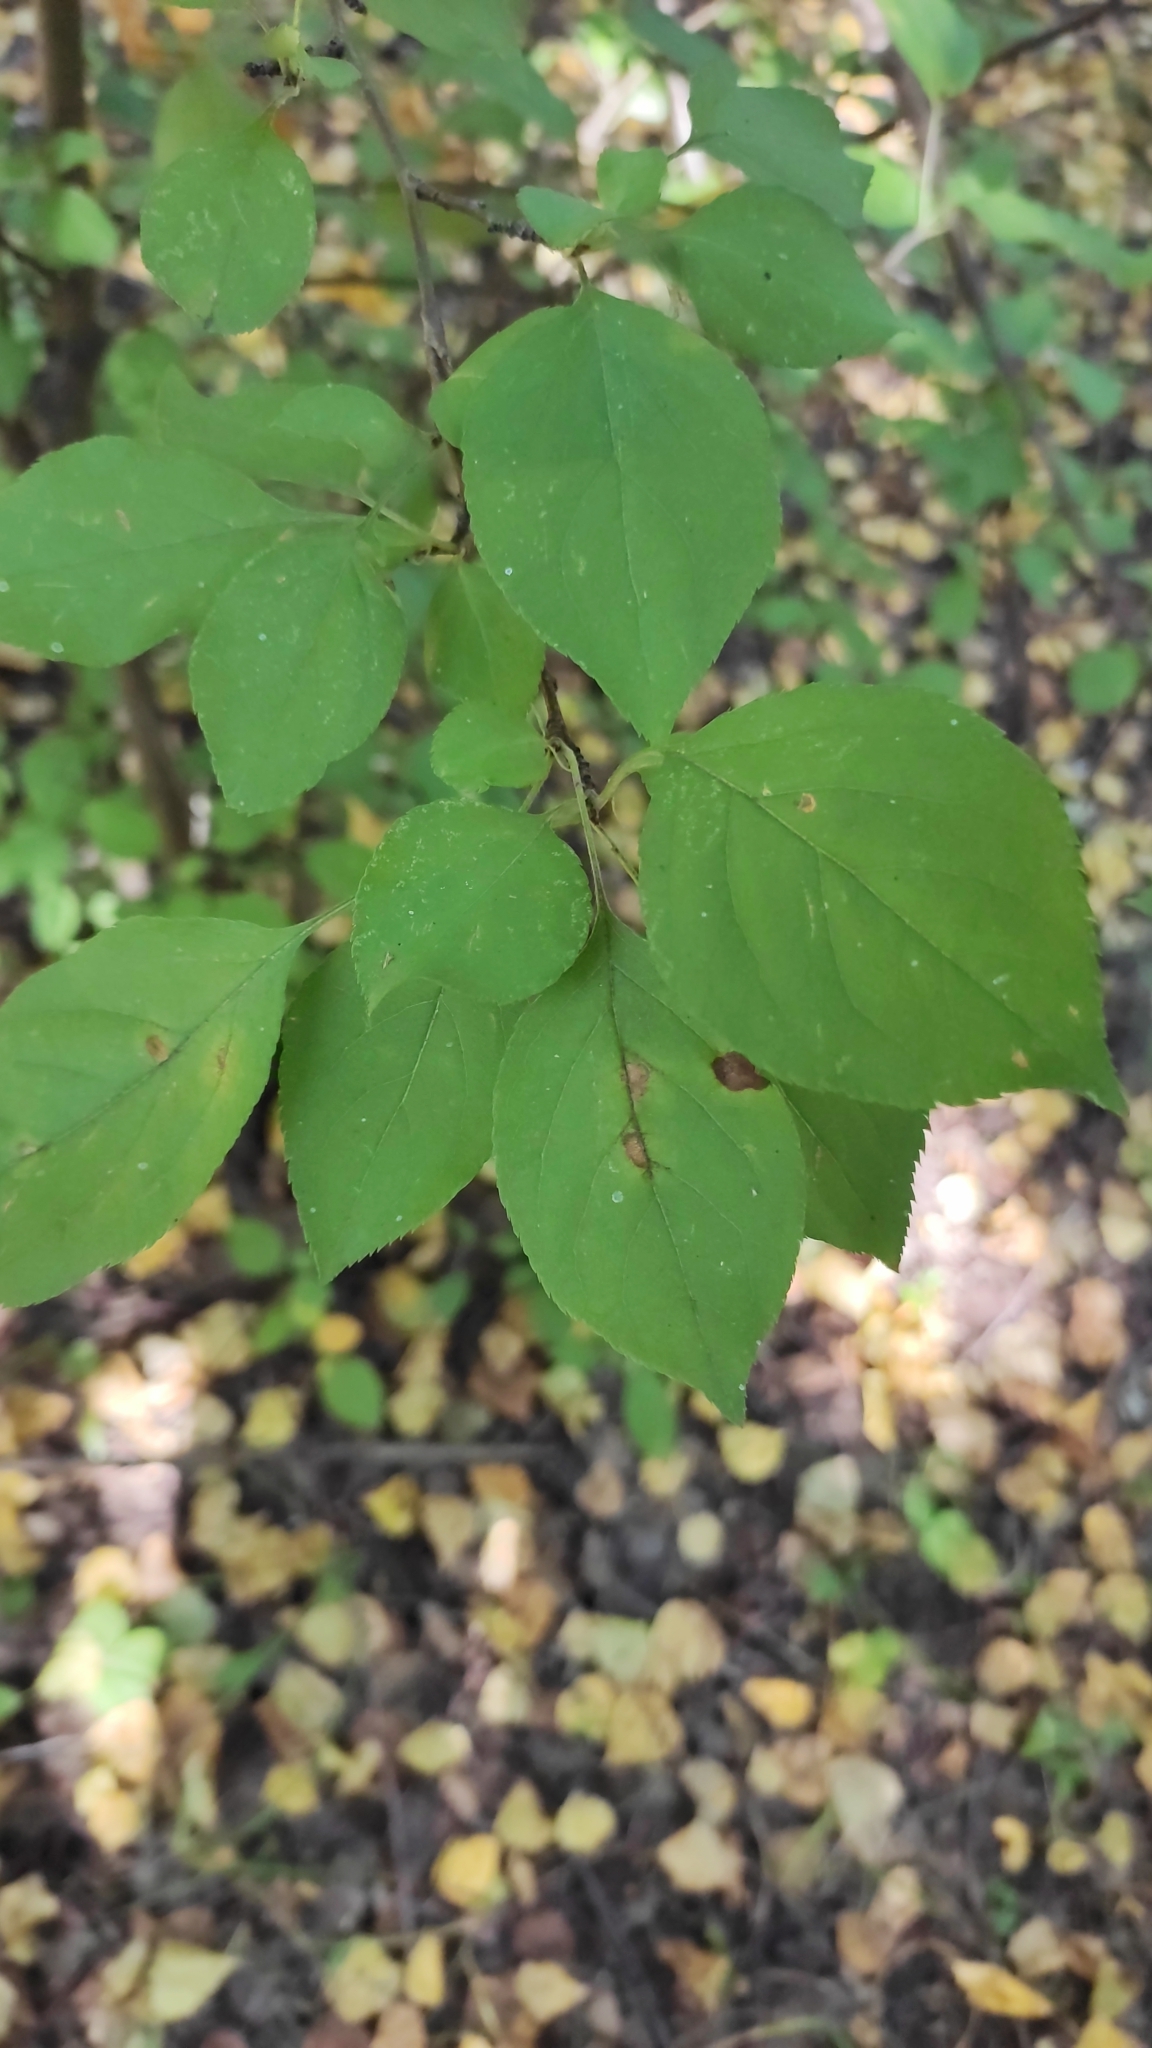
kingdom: Plantae
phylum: Tracheophyta
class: Magnoliopsida
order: Rosales
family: Rosaceae
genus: Malus
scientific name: Malus baccata
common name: Siberian crab
